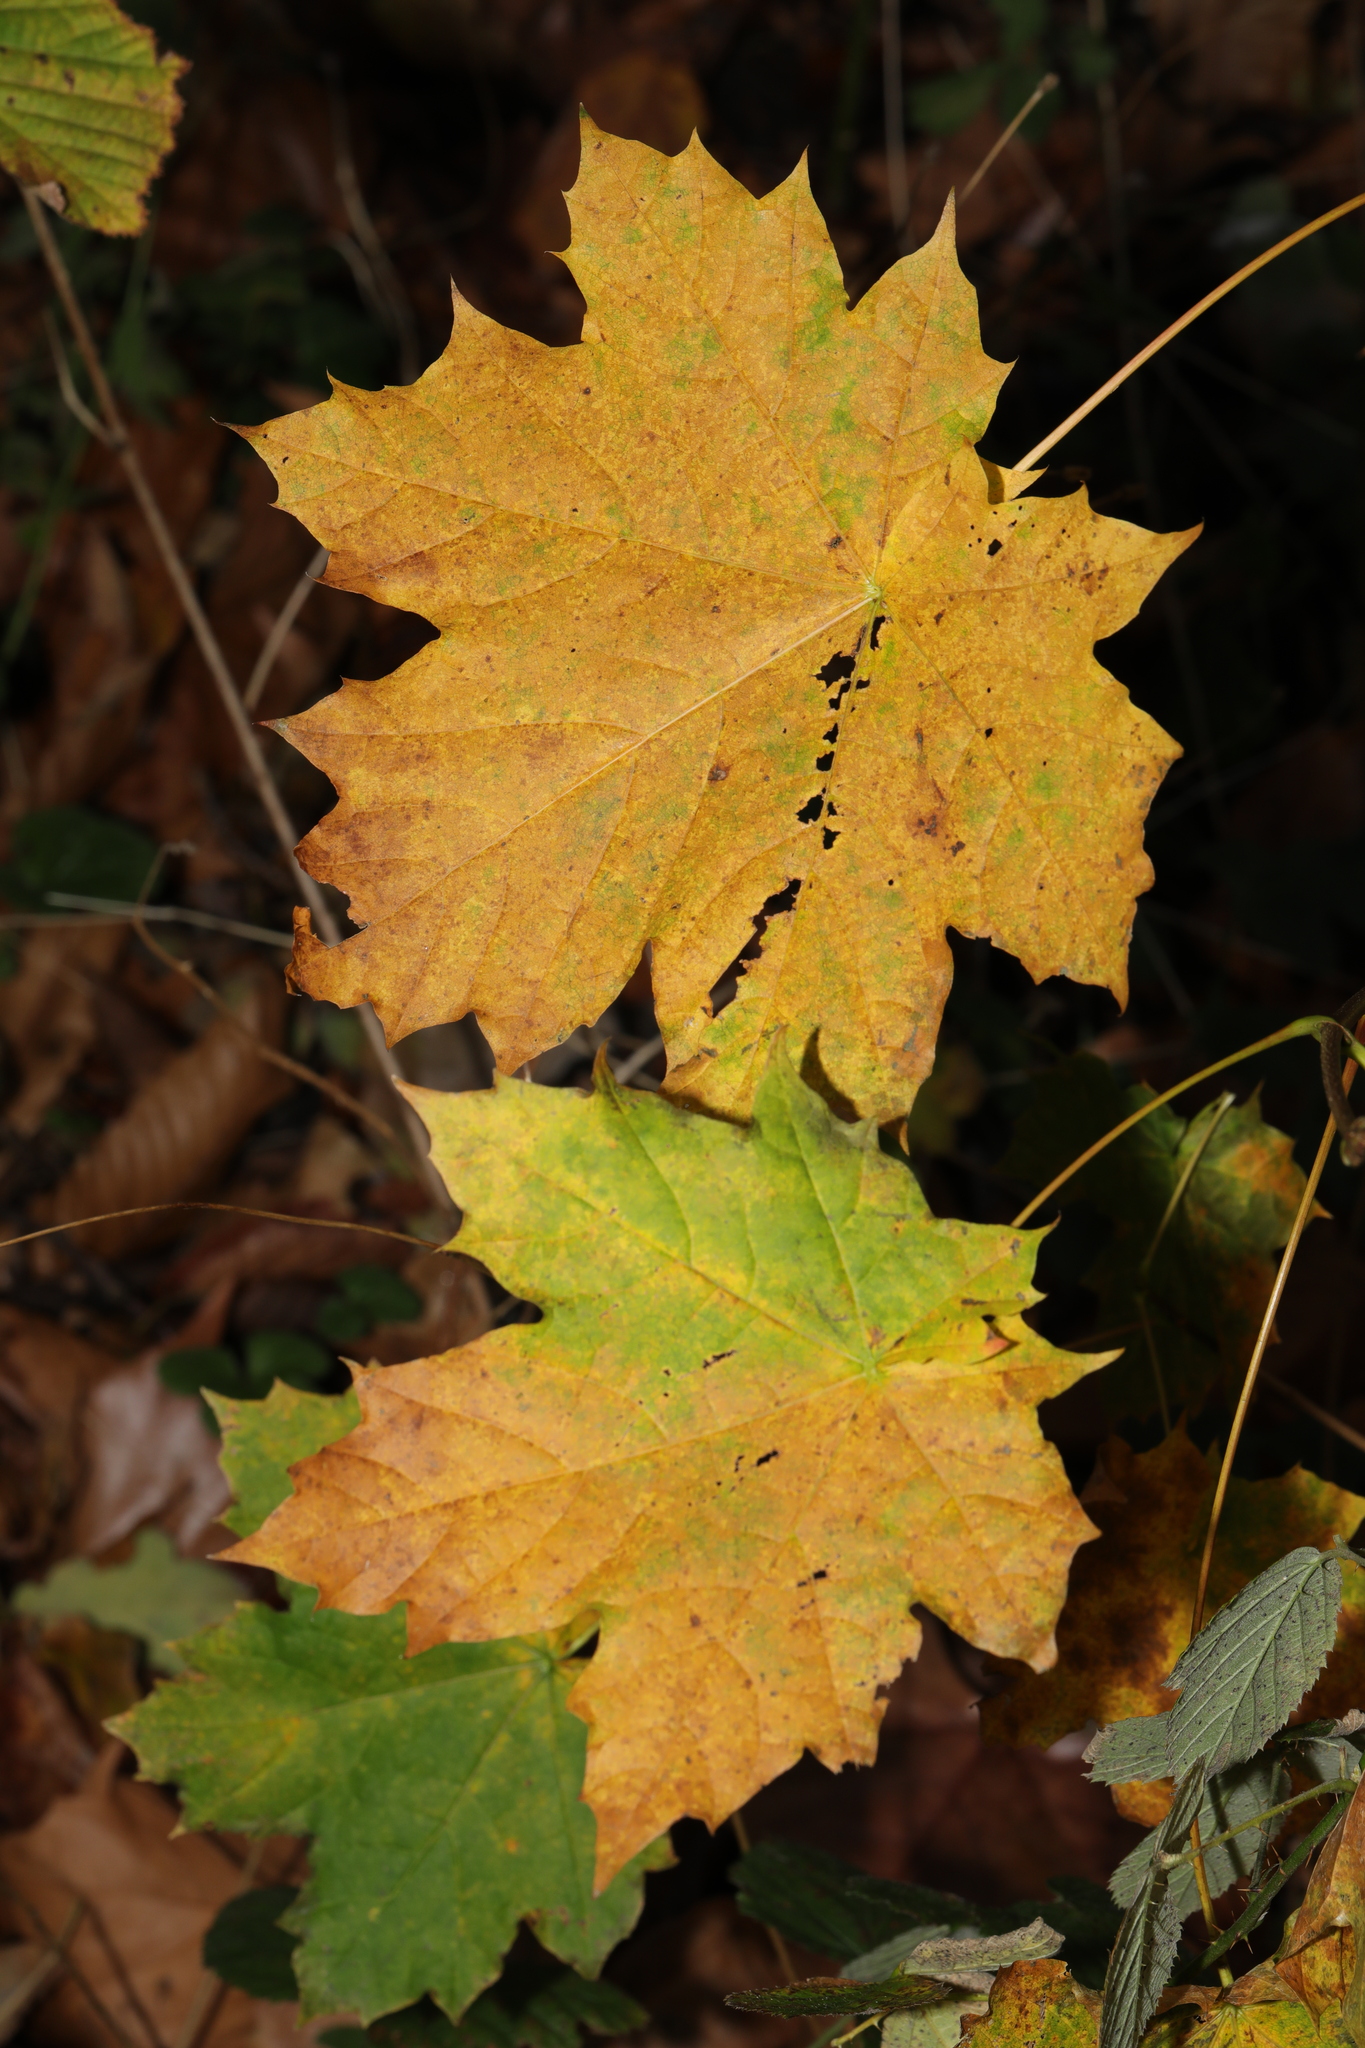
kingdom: Plantae
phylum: Tracheophyta
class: Magnoliopsida
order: Sapindales
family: Sapindaceae
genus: Acer
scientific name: Acer platanoides
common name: Norway maple
